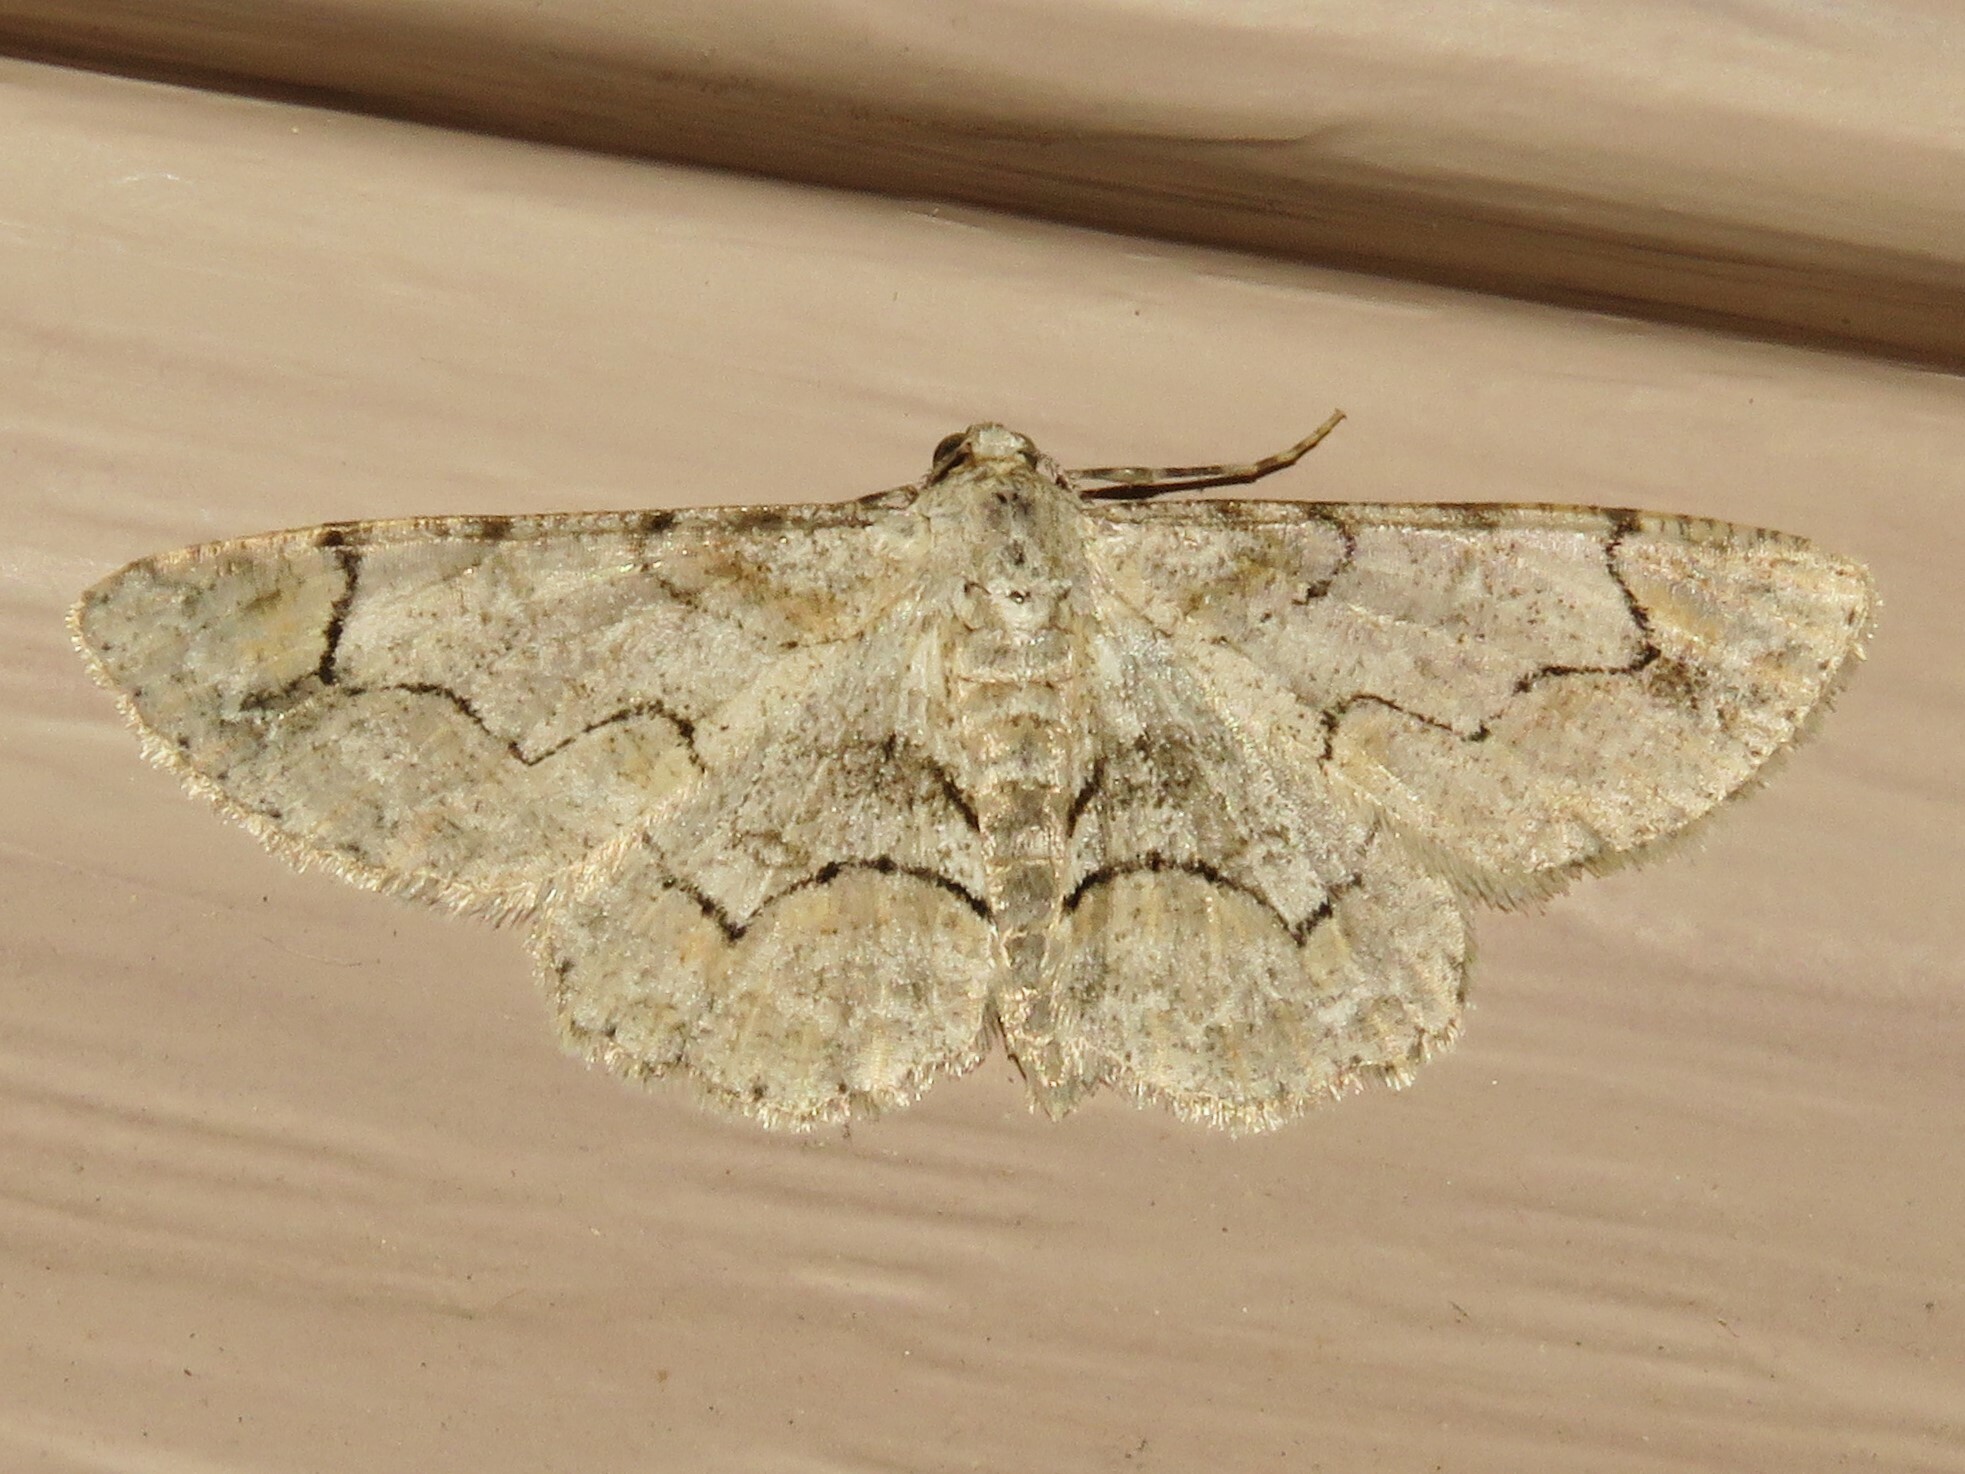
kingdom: Animalia
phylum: Arthropoda
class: Insecta
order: Lepidoptera
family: Geometridae
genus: Iridopsis
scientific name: Iridopsis larvaria
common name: Bent-line gray
